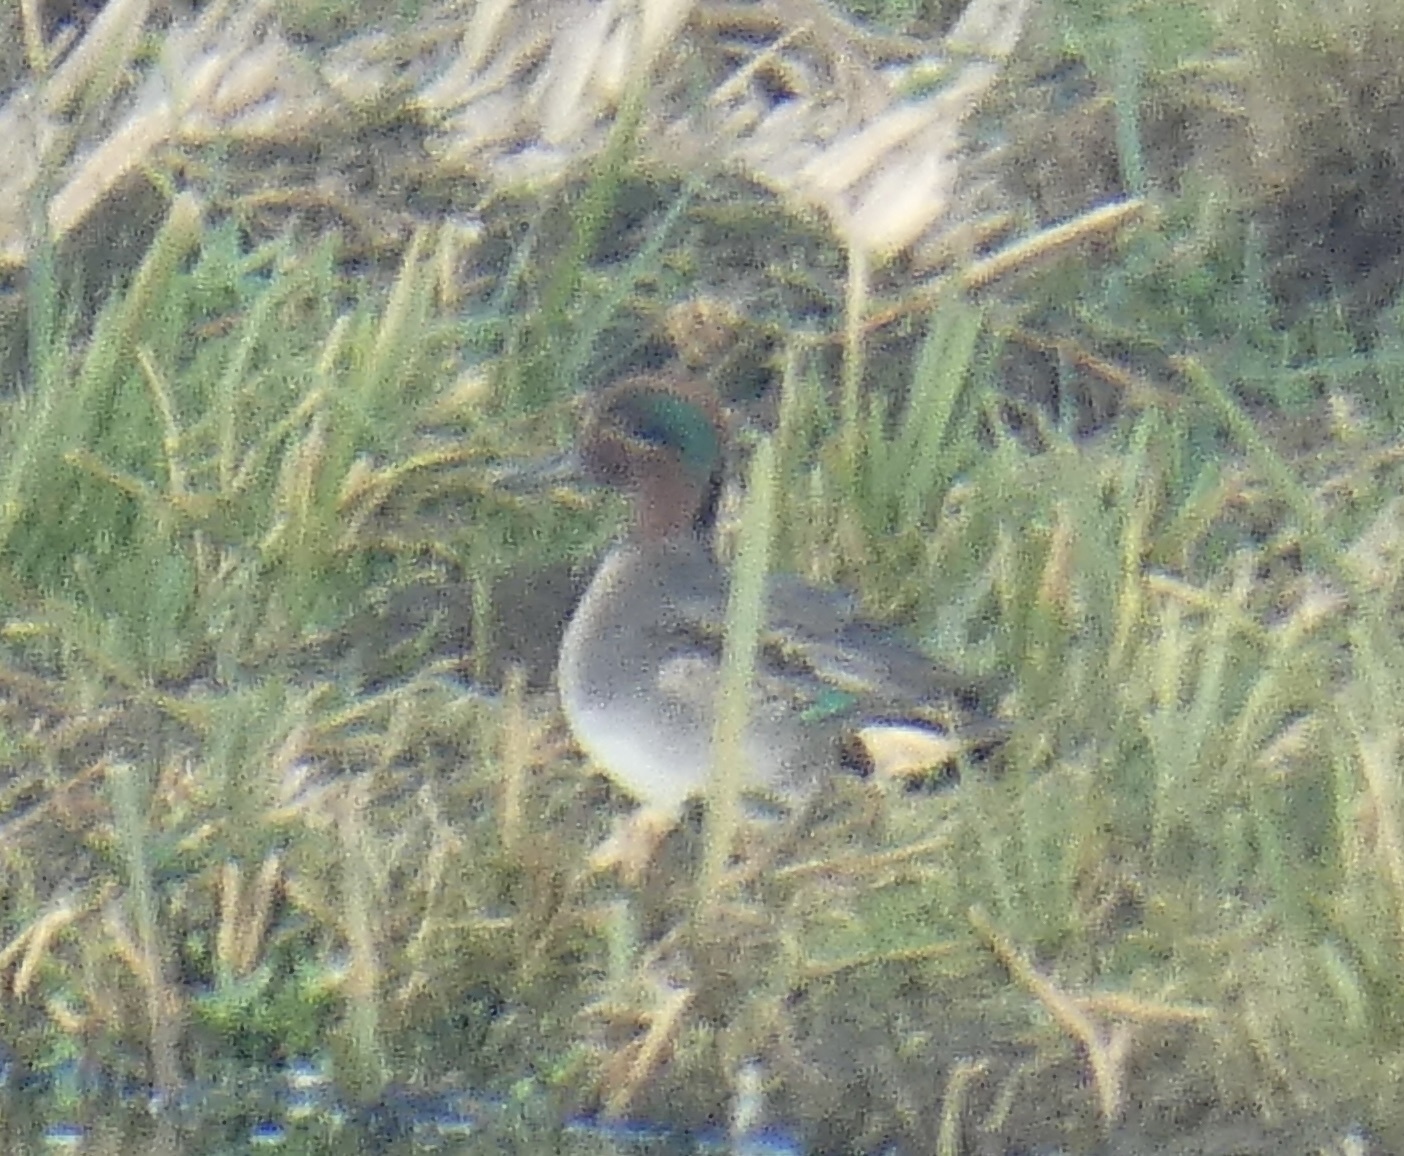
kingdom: Animalia
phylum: Chordata
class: Aves
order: Anseriformes
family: Anatidae
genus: Anas
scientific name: Anas crecca
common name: Eurasian teal
